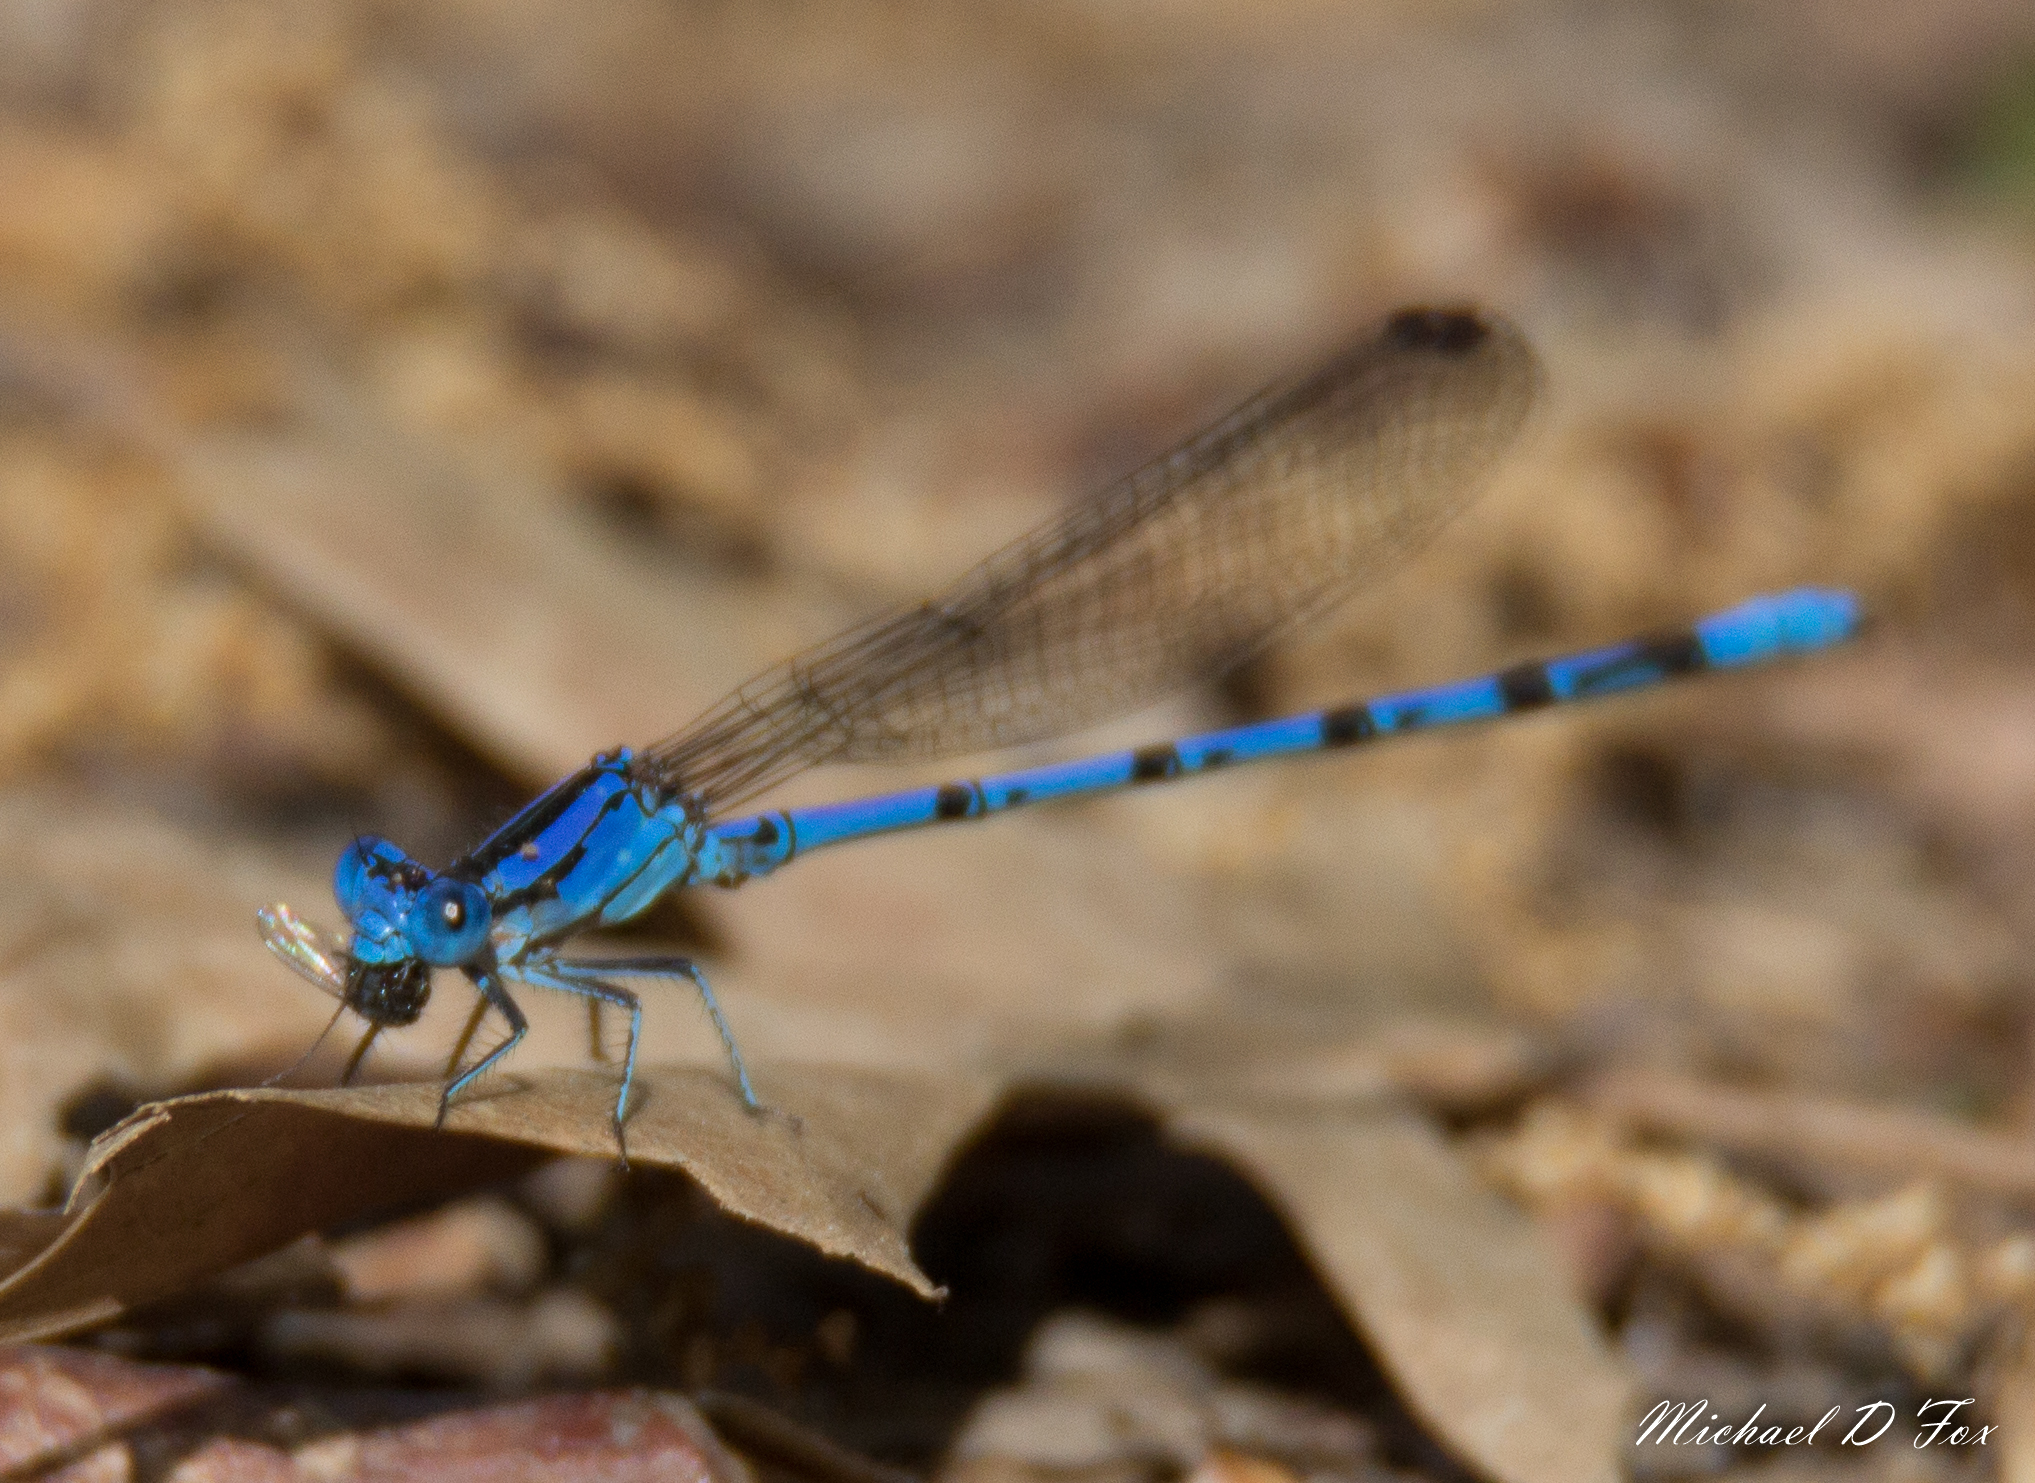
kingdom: Animalia
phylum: Arthropoda
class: Insecta
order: Odonata
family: Coenagrionidae
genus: Argia
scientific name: Argia funebris
